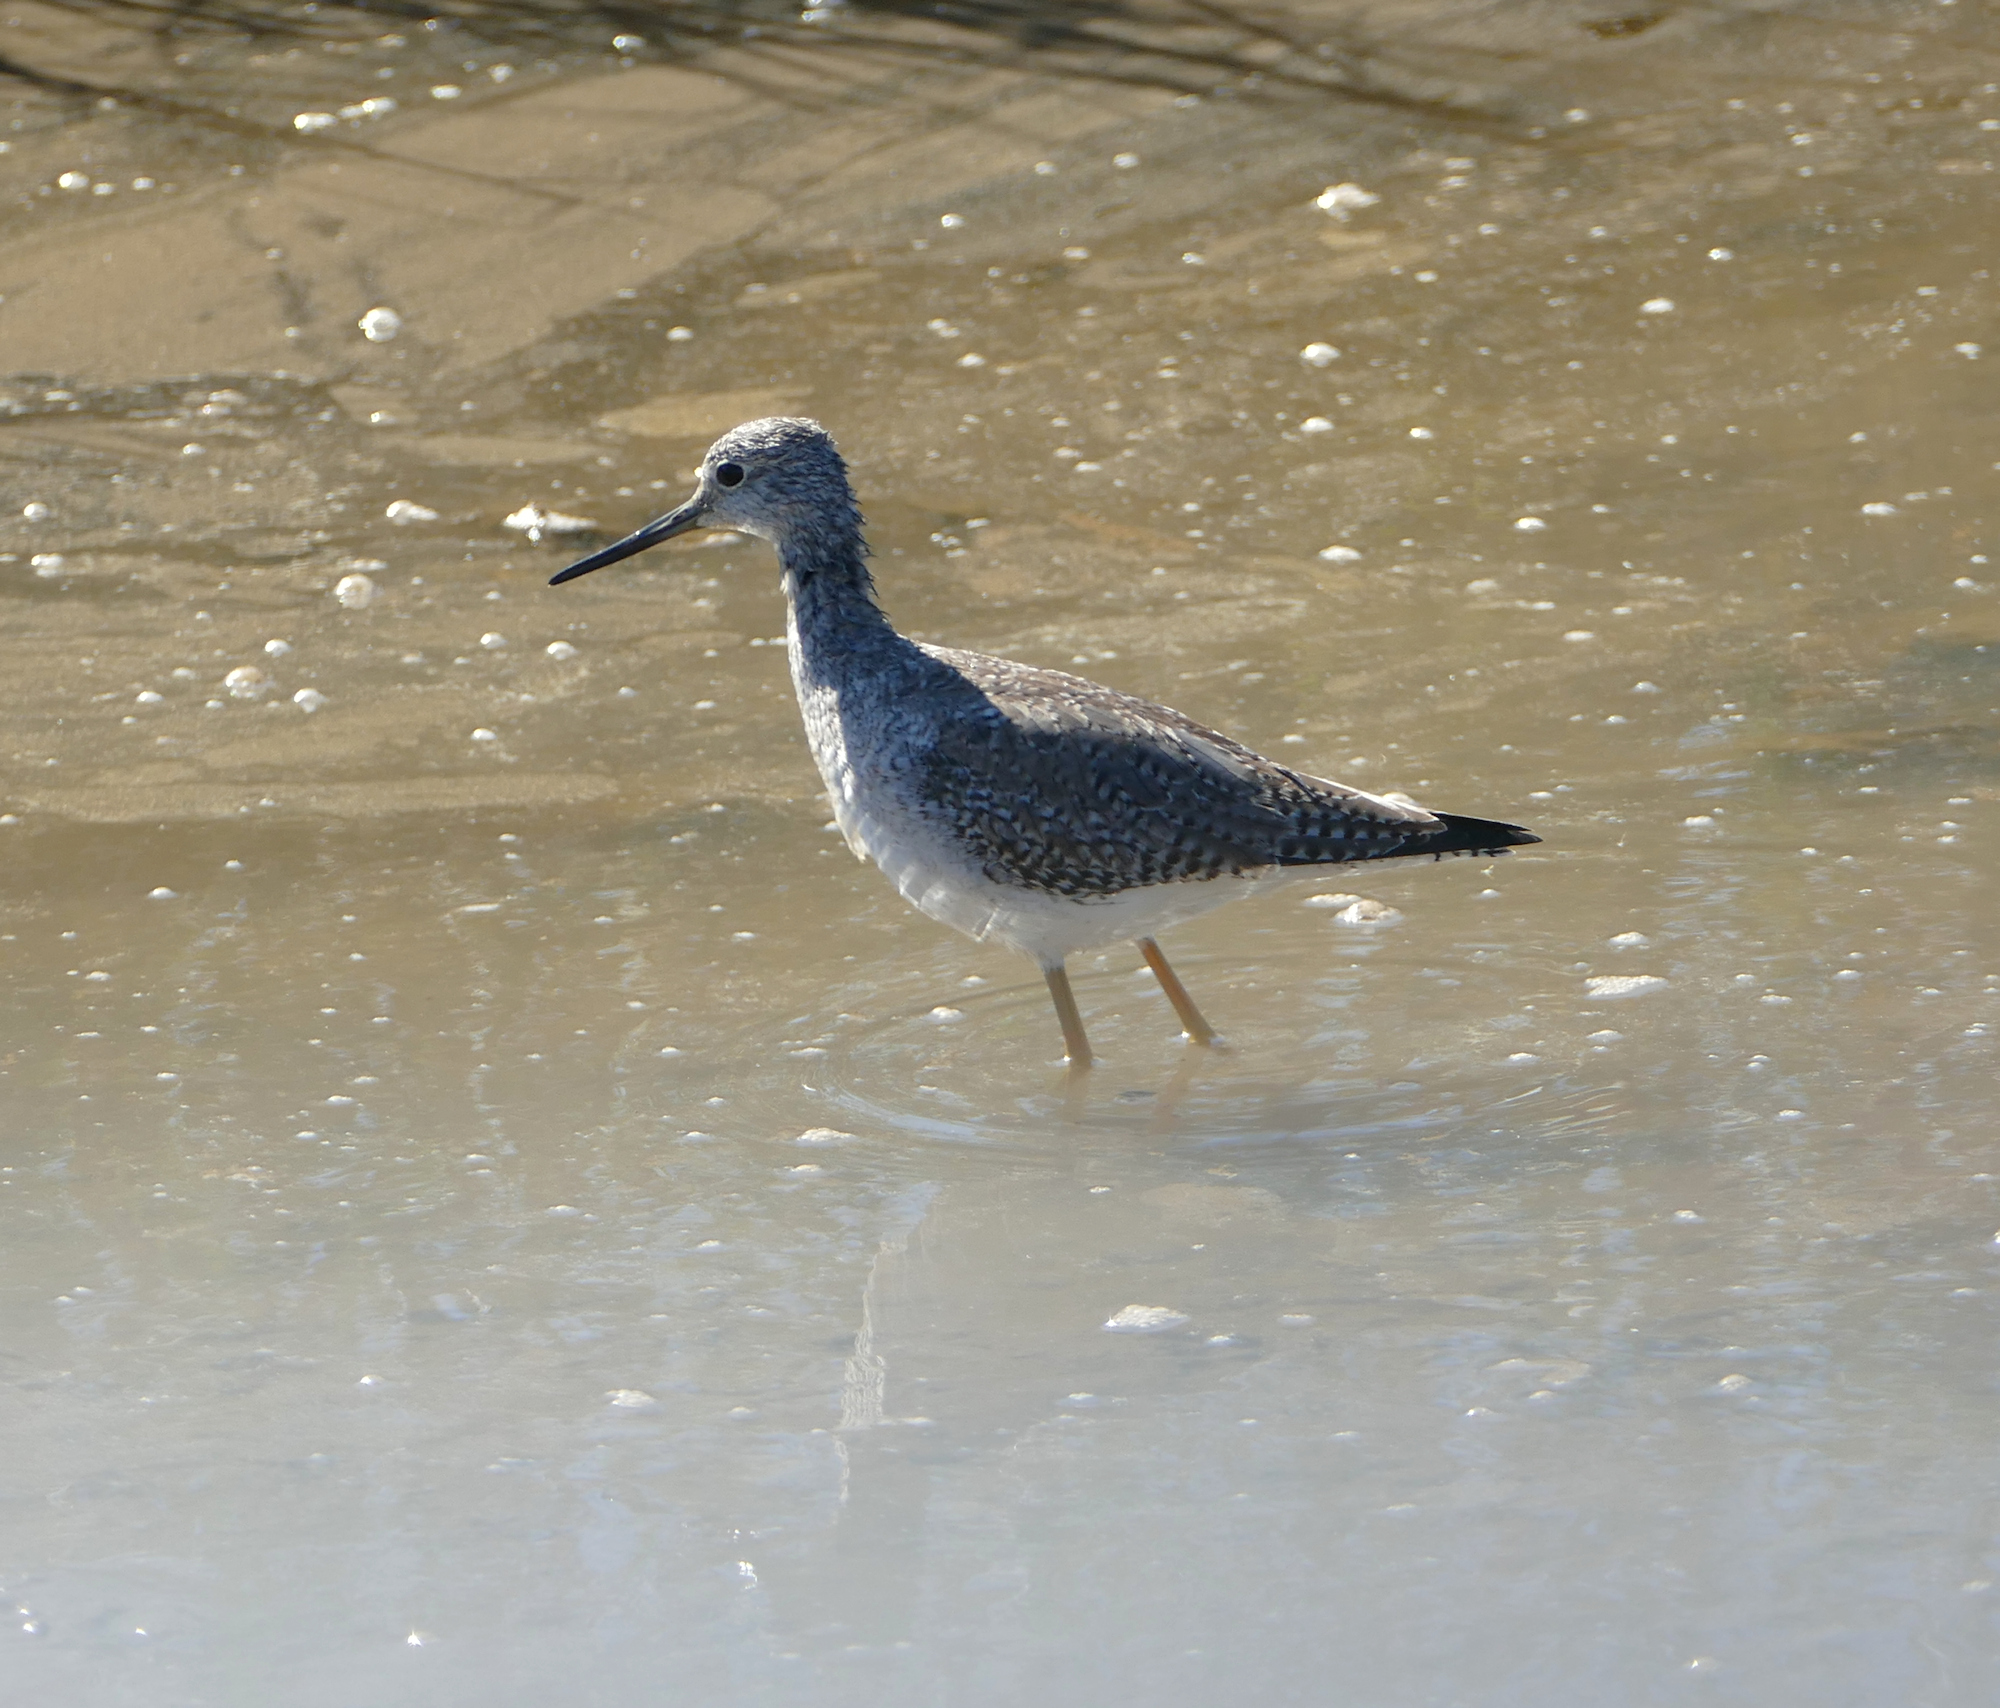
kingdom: Animalia
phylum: Chordata
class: Aves
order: Charadriiformes
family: Scolopacidae
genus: Tringa
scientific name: Tringa melanoleuca
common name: Greater yellowlegs
